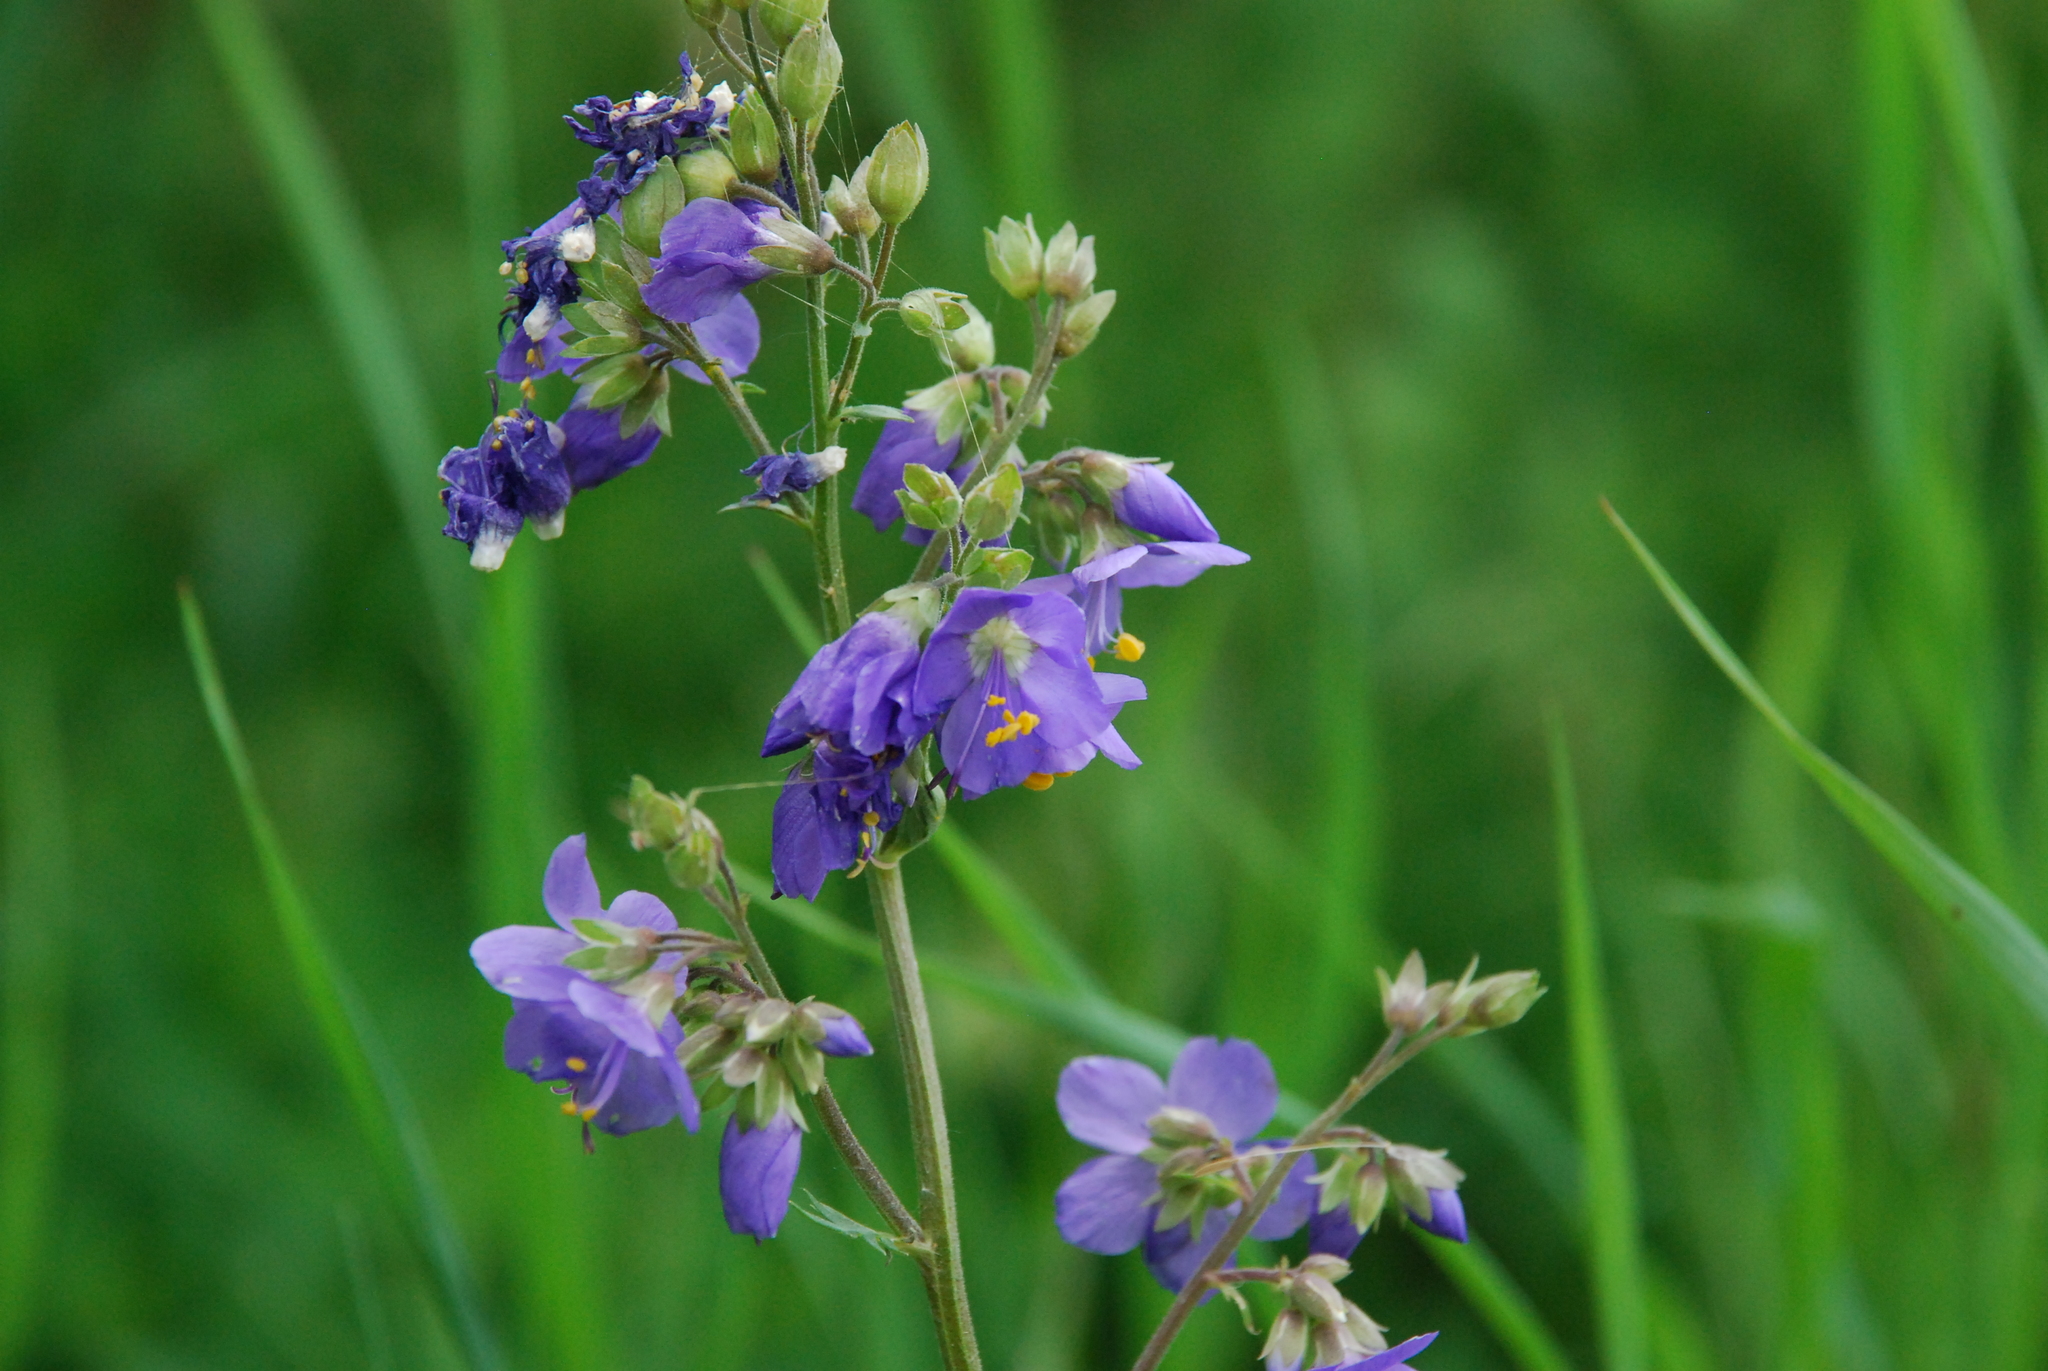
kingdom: Plantae
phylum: Tracheophyta
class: Magnoliopsida
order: Ericales
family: Polemoniaceae
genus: Polemonium
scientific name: Polemonium caeruleum
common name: Jacob's-ladder
